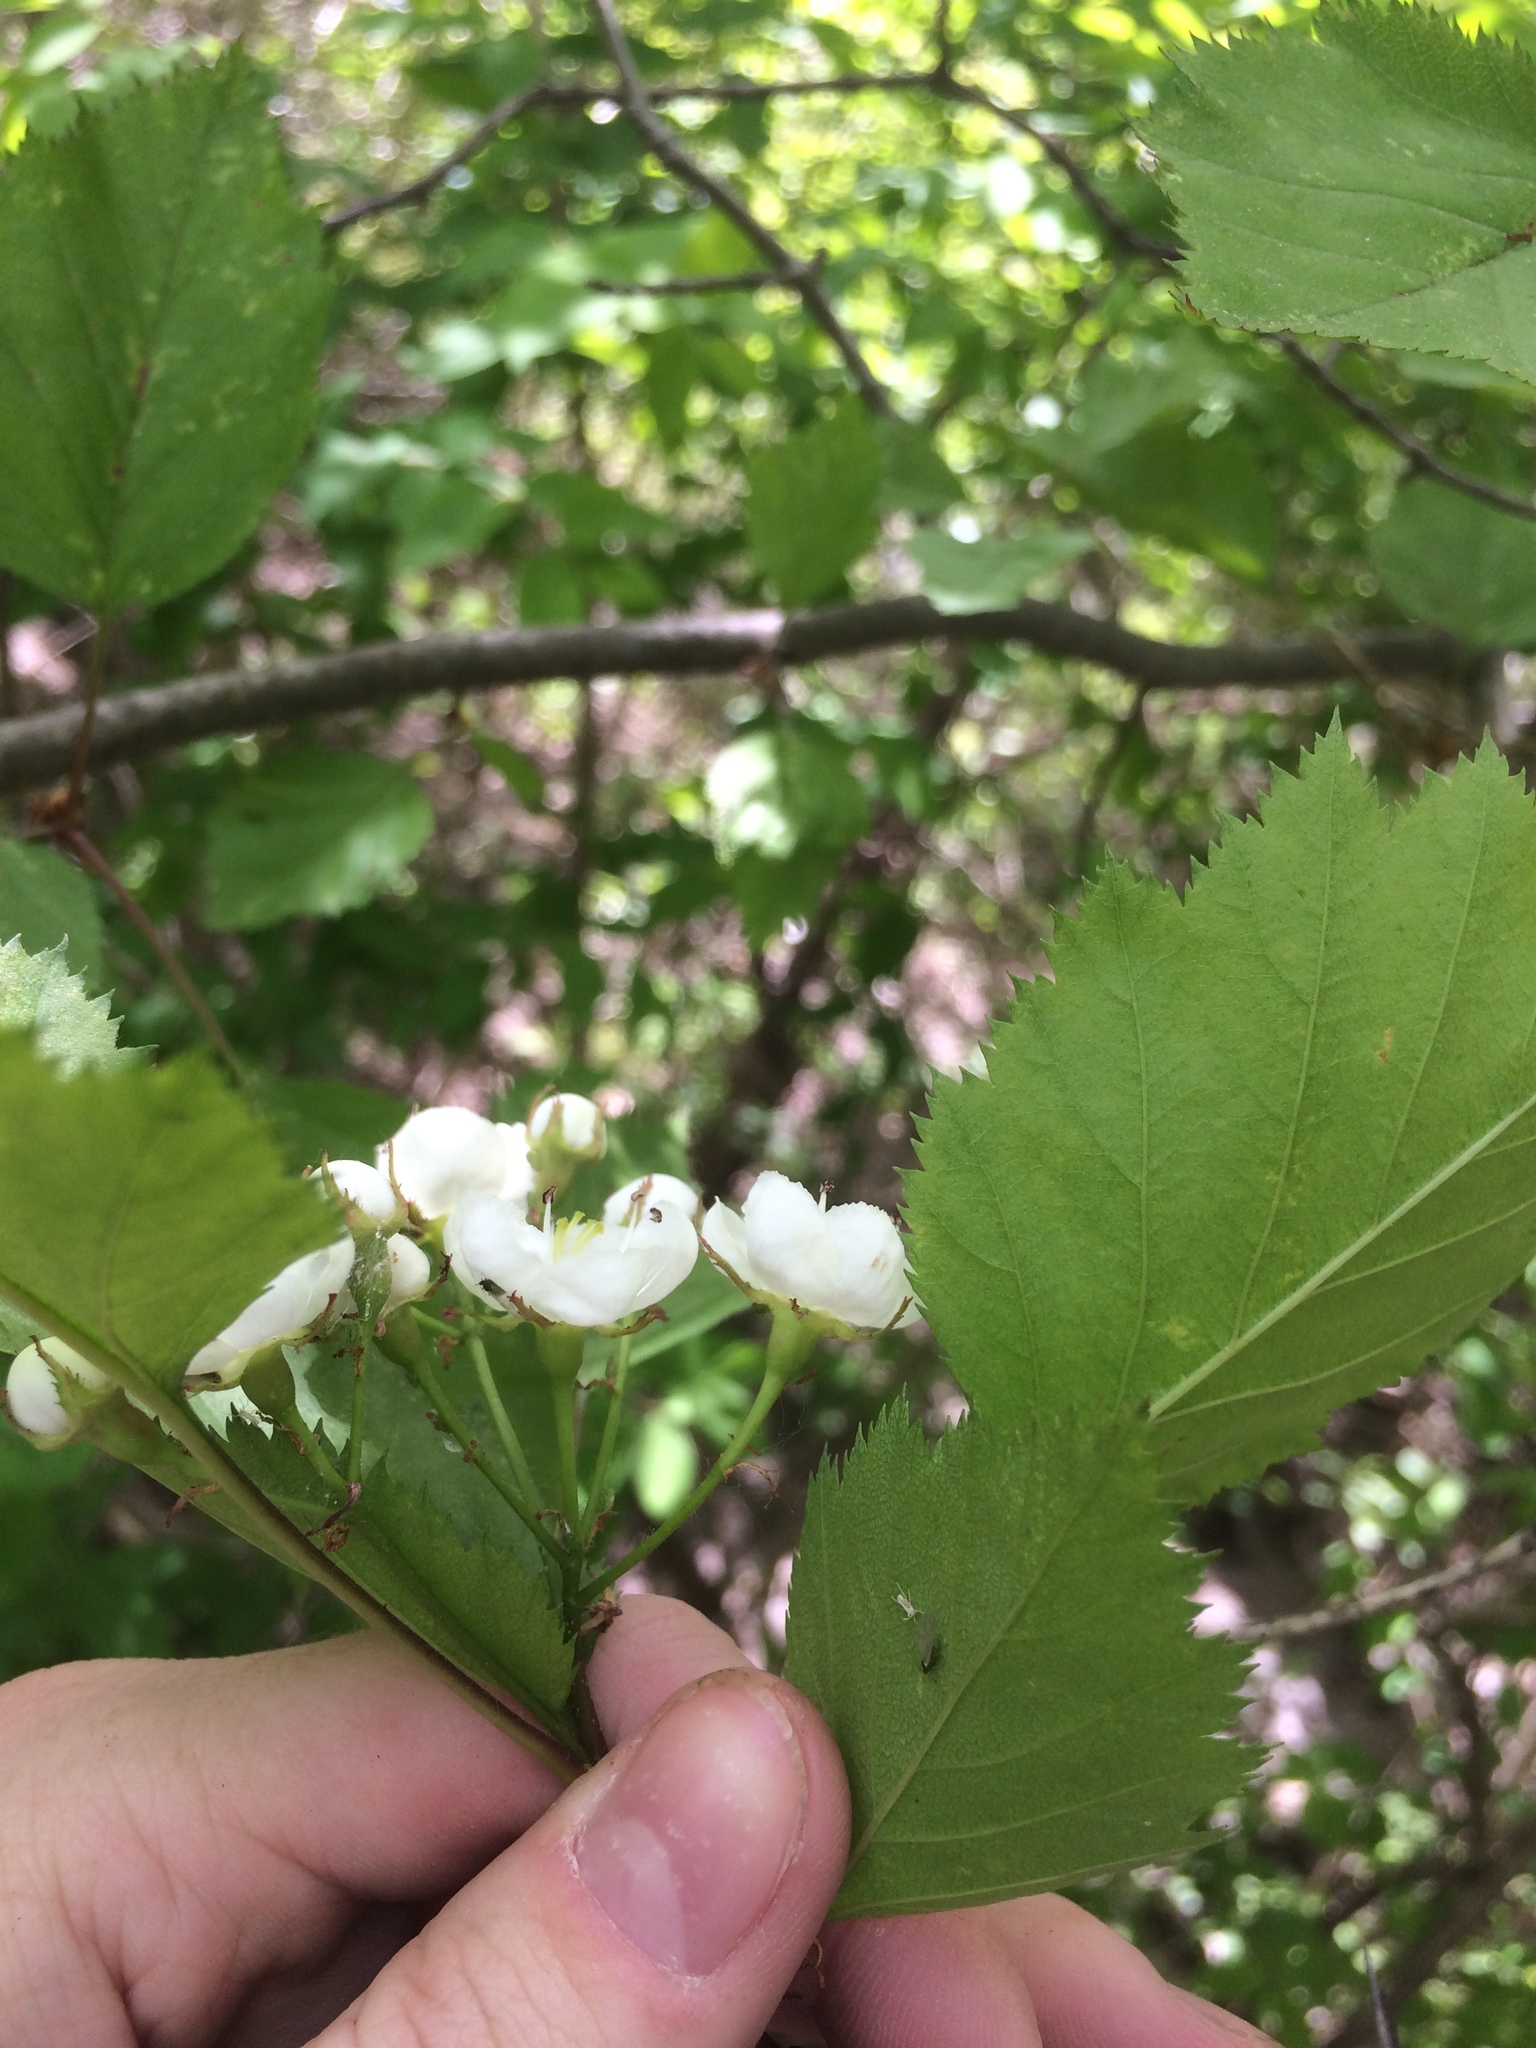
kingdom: Plantae
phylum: Tracheophyta
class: Magnoliopsida
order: Rosales
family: Rosaceae
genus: Crataegus
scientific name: Crataegus holmesiana
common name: Holmes' hawthorn
